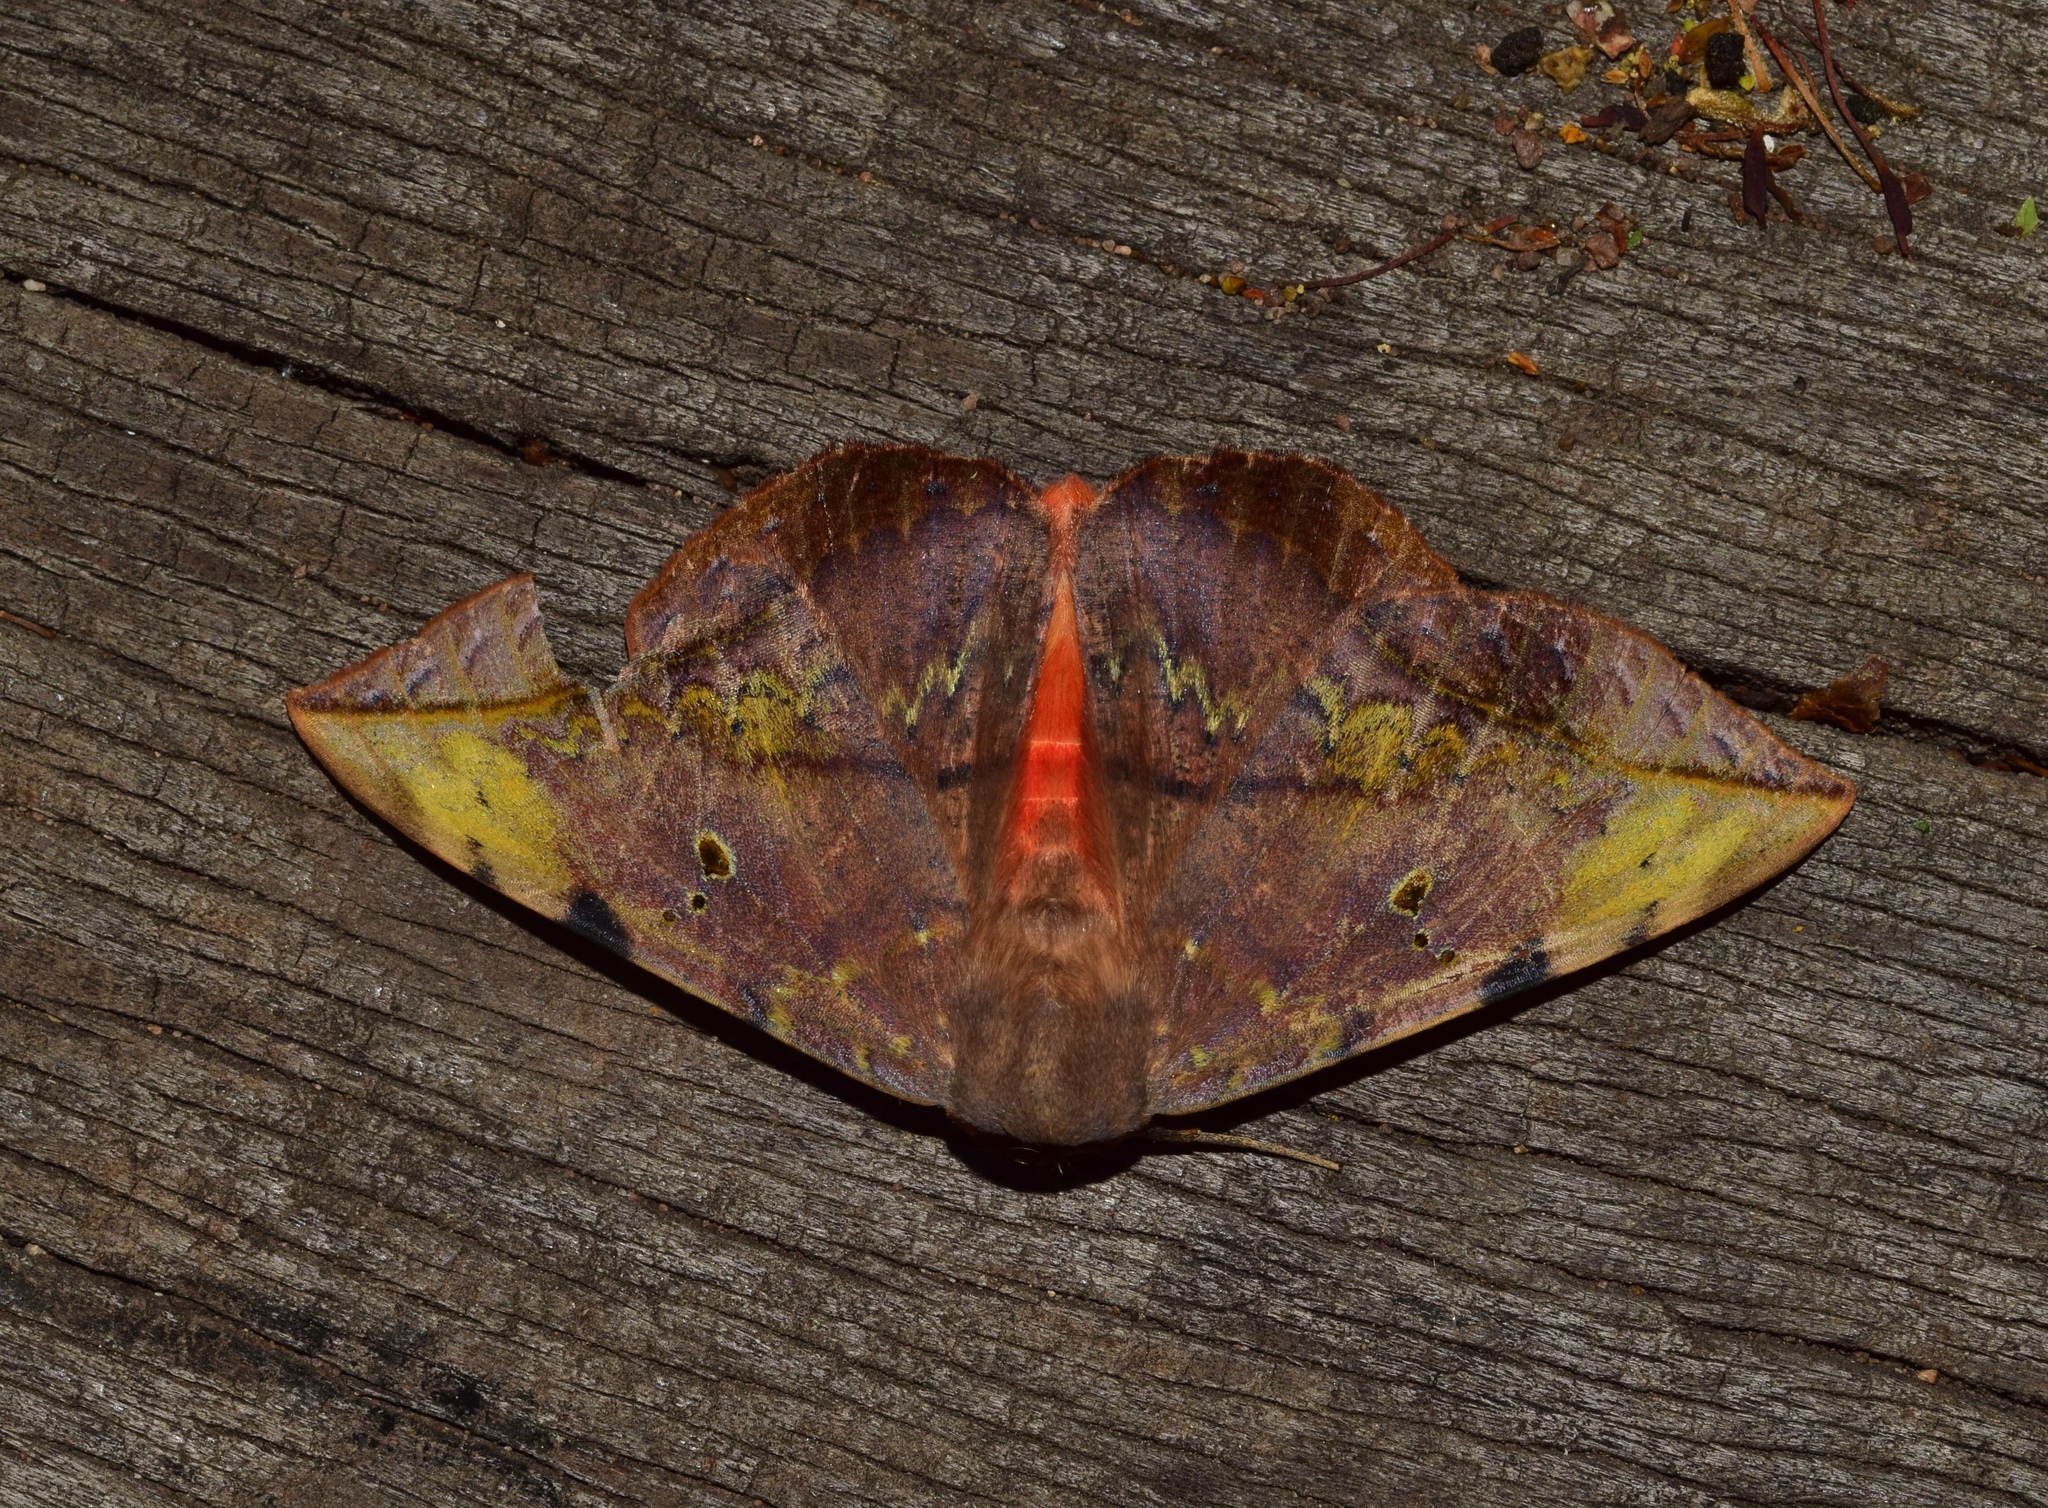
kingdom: Animalia
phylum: Arthropoda
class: Insecta
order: Lepidoptera
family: Erebidae
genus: Hypopyra
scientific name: Hypopyra capensis
